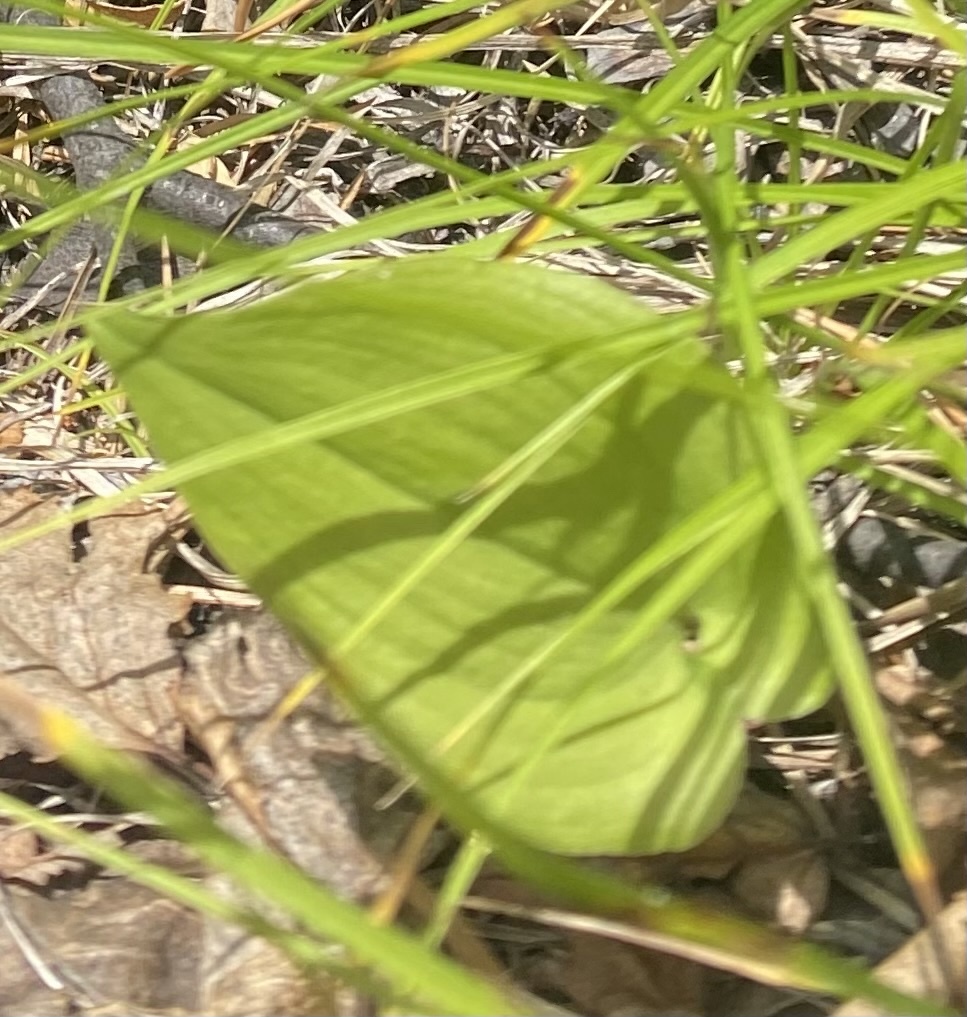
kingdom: Plantae
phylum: Tracheophyta
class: Liliopsida
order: Asparagales
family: Asparagaceae
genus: Maianthemum
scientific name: Maianthemum bifolium
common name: May lily
